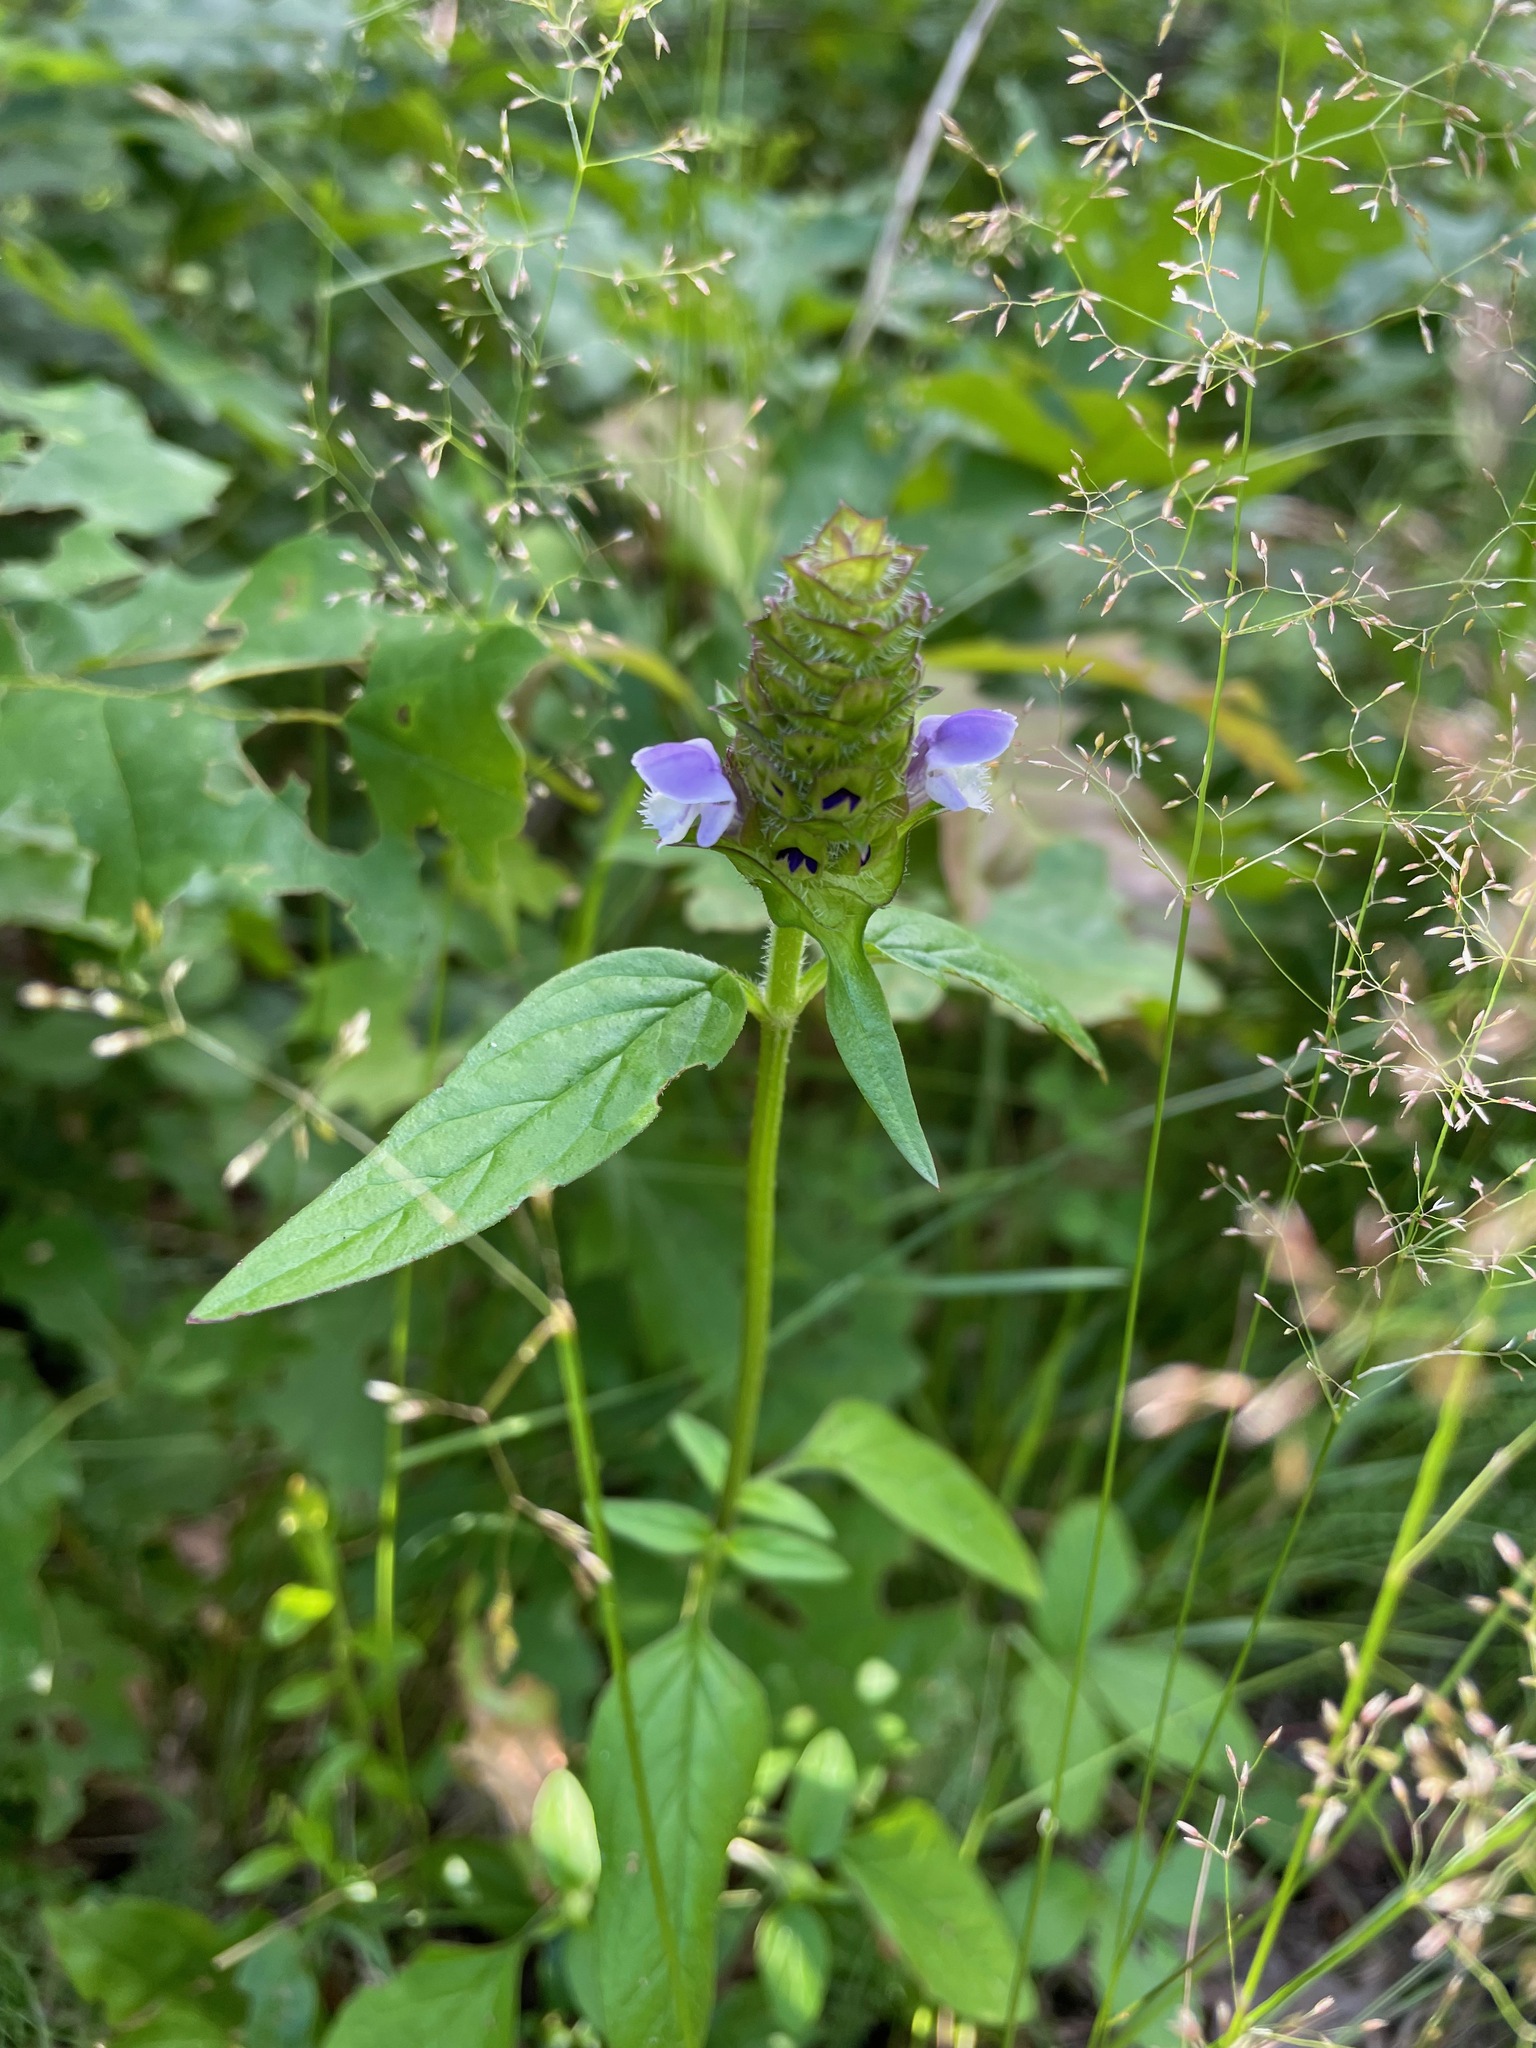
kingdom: Plantae
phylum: Tracheophyta
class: Magnoliopsida
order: Lamiales
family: Lamiaceae
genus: Prunella
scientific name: Prunella vulgaris
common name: Heal-all
